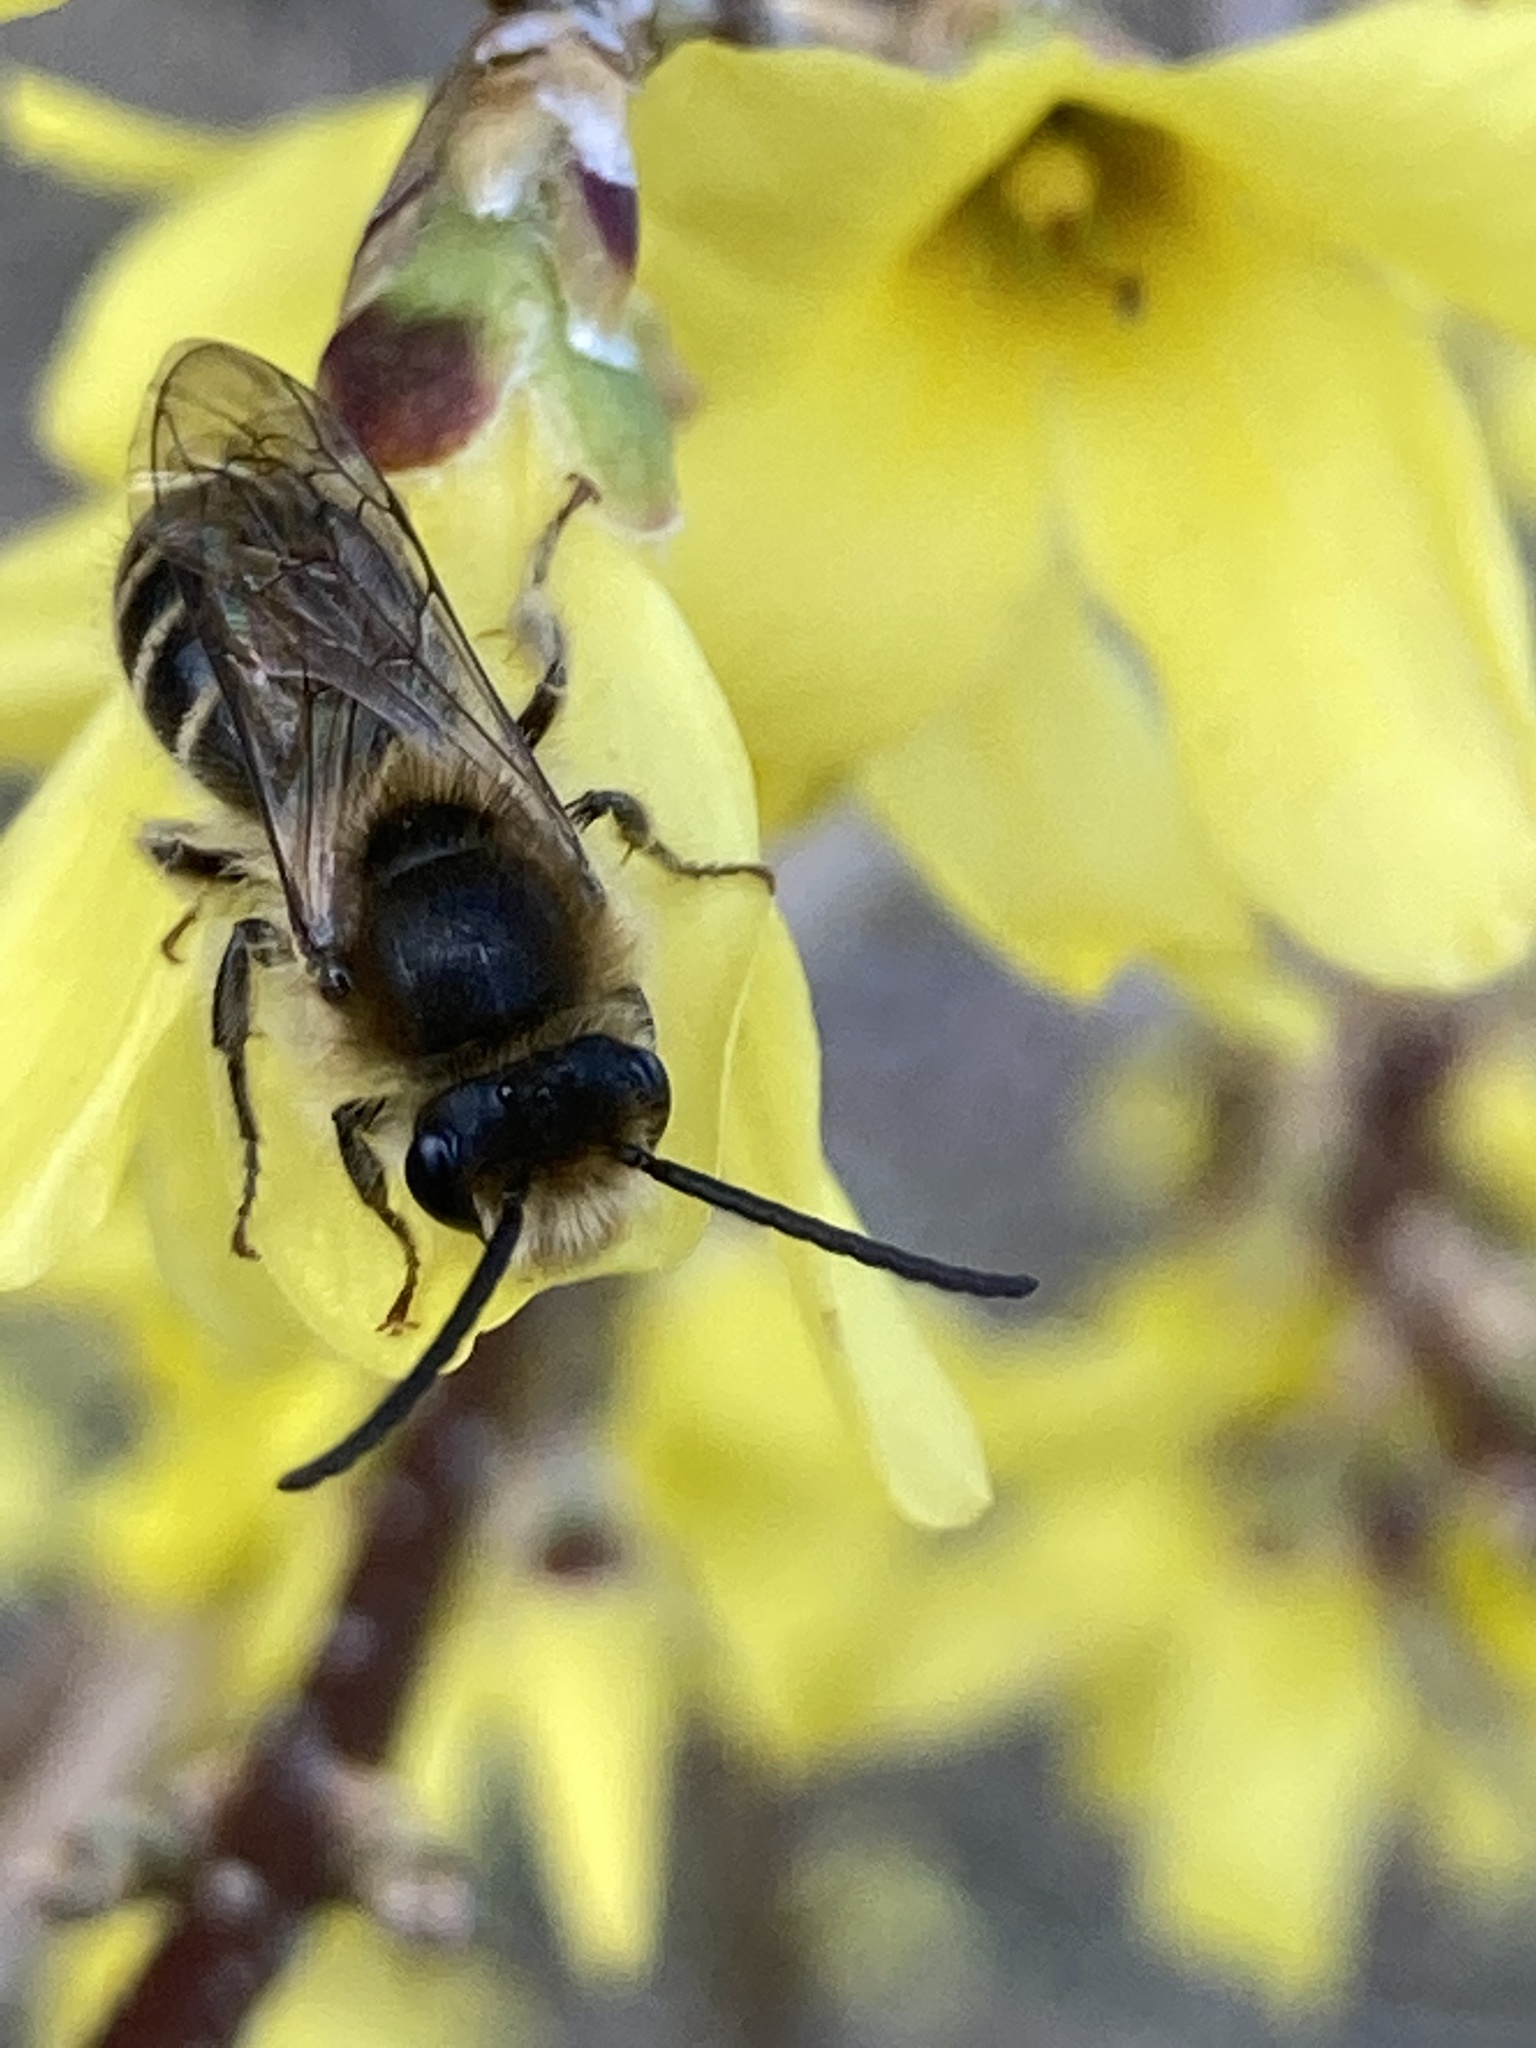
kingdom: Animalia
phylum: Arthropoda
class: Insecta
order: Hymenoptera
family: Colletidae
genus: Colletes
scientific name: Colletes inaequalis
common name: Unequal cellophane bee
